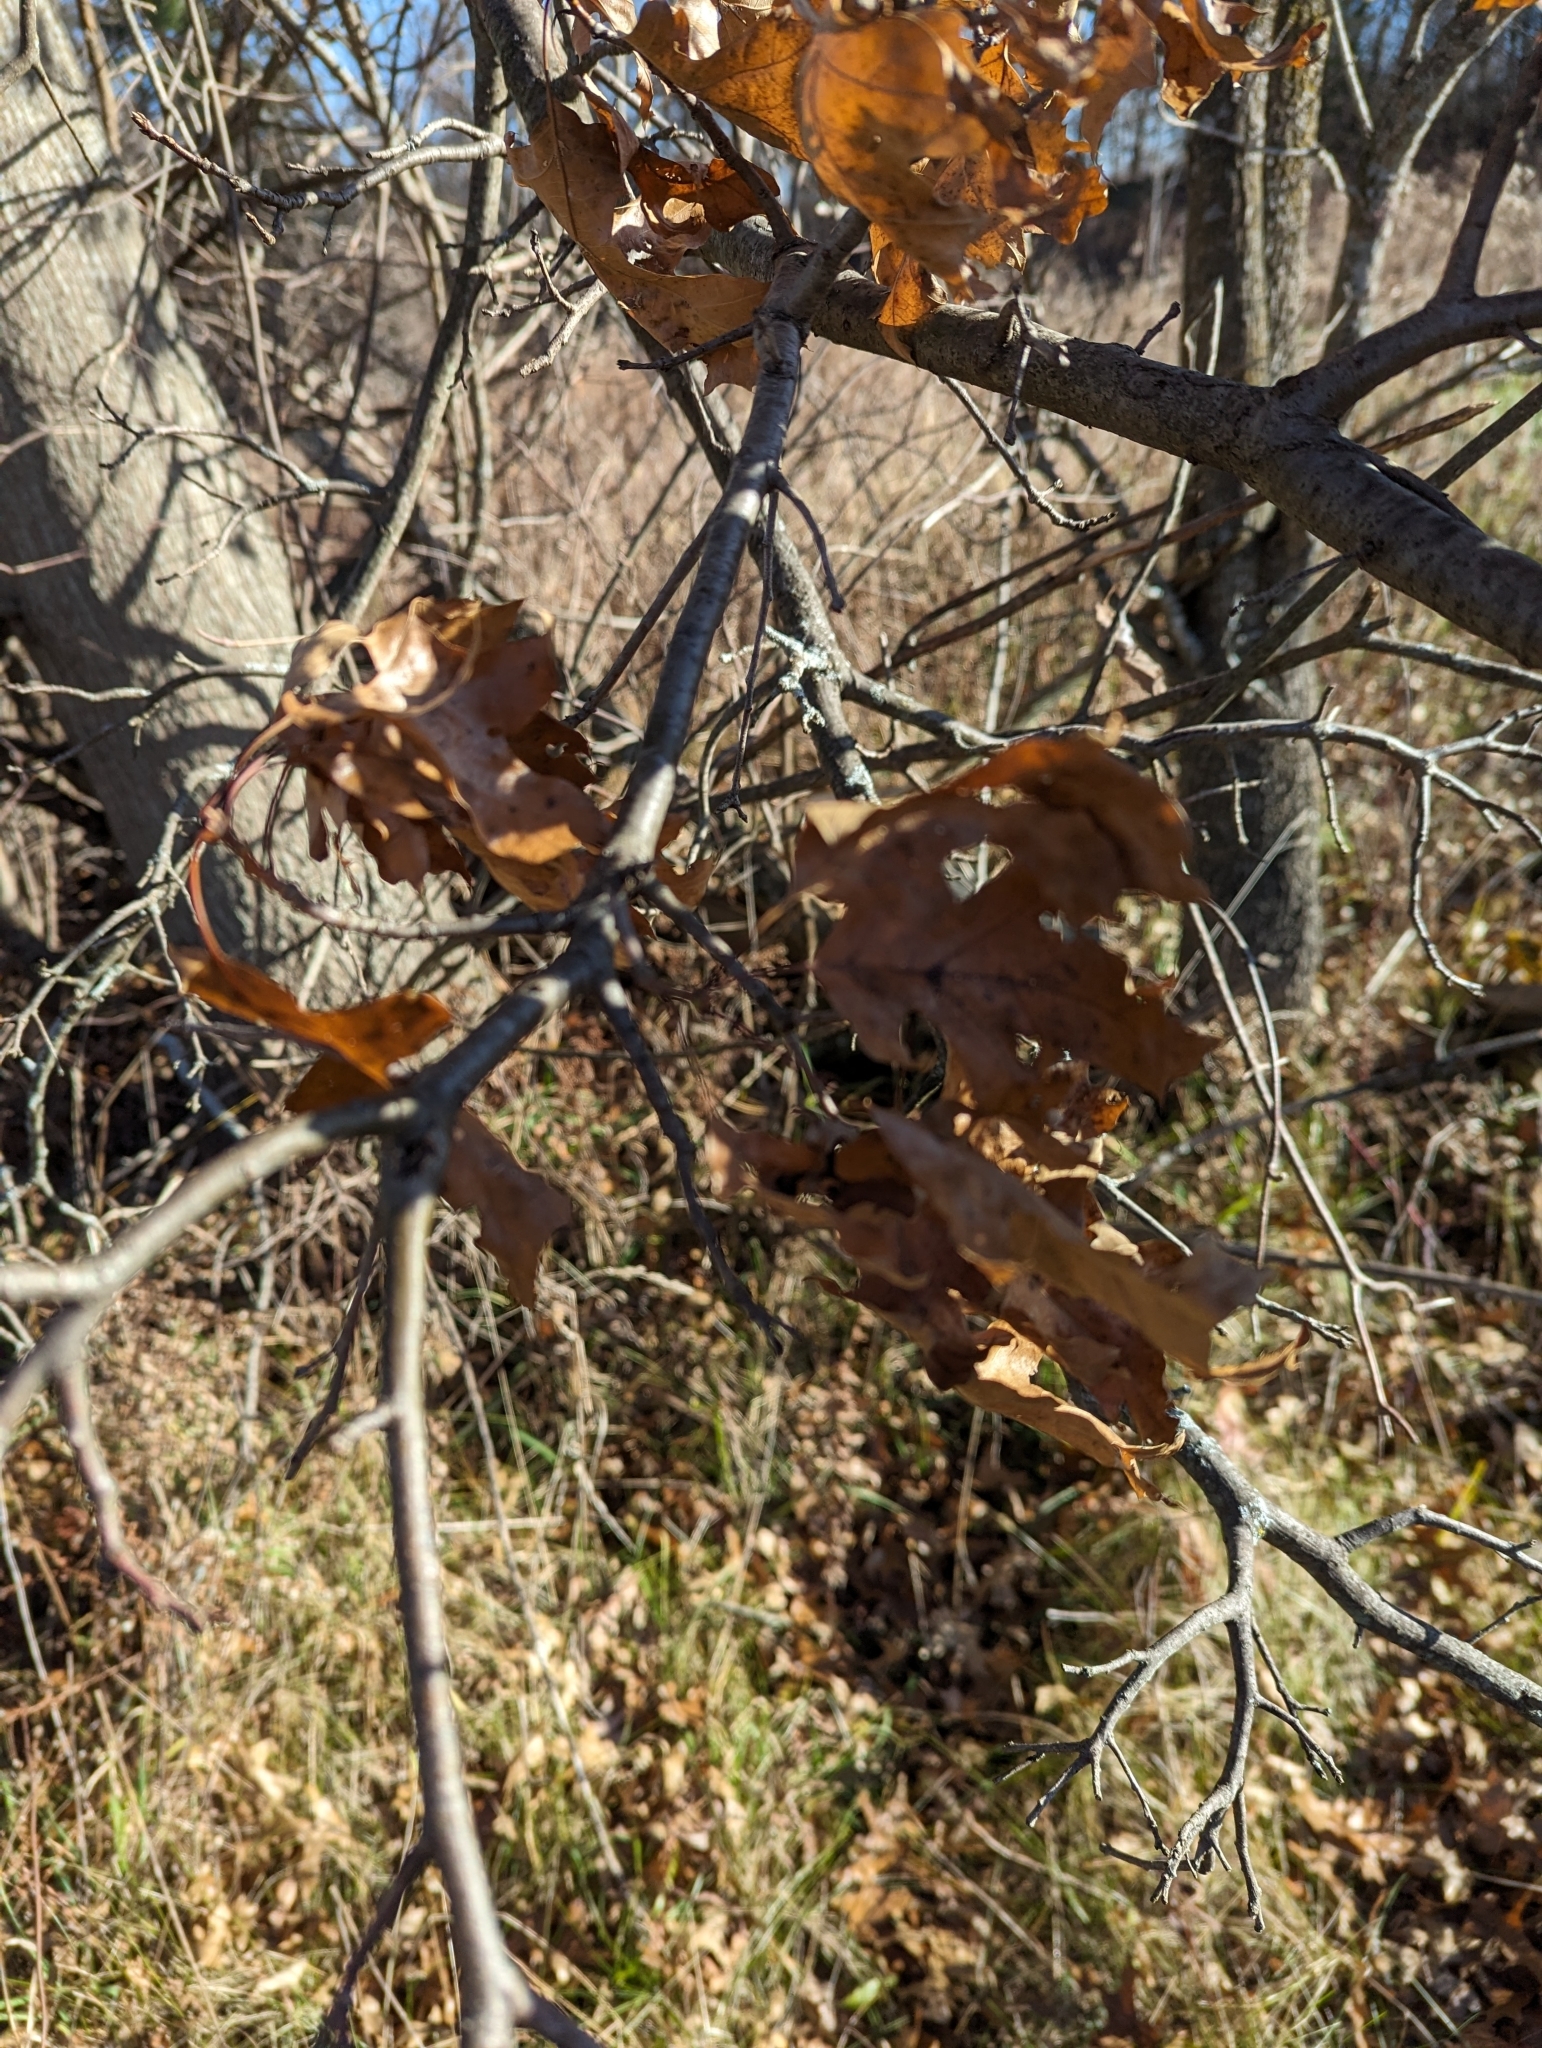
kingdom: Plantae
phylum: Tracheophyta
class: Magnoliopsida
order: Fagales
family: Fagaceae
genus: Quercus
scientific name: Quercus velutina
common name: Black oak
